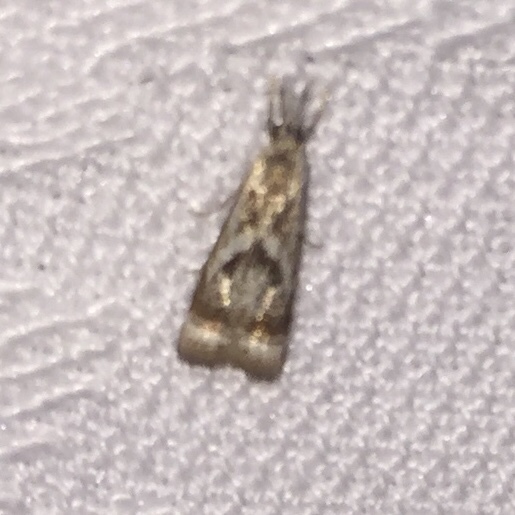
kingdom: Animalia
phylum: Arthropoda
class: Insecta
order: Lepidoptera
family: Crambidae
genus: Microcrambus
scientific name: Microcrambus elegans
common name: Elegant grass-veneer
